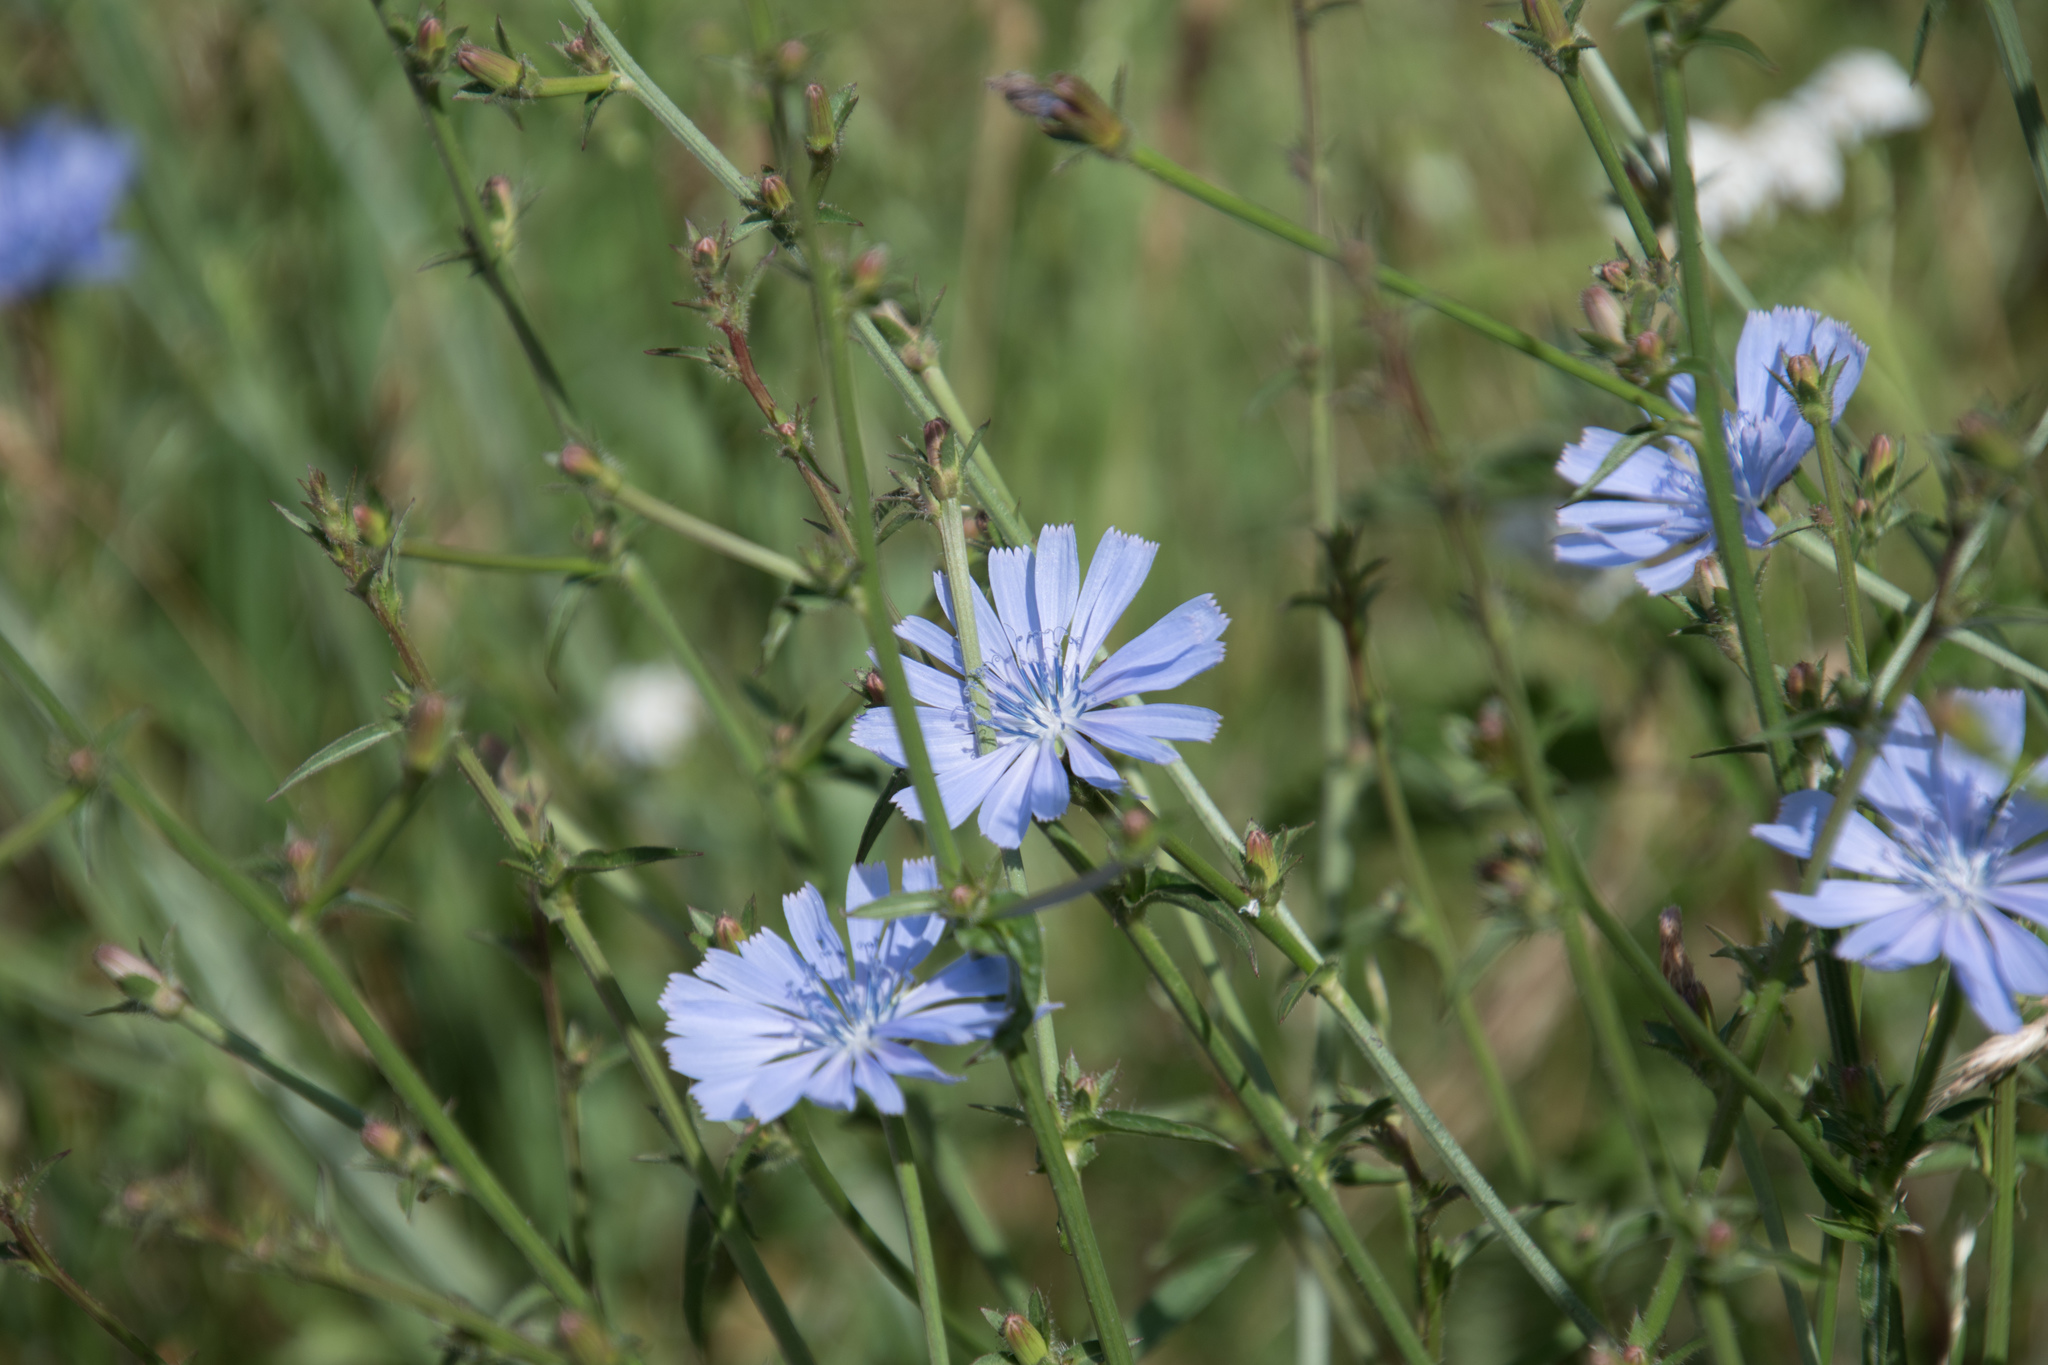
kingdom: Plantae
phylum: Tracheophyta
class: Magnoliopsida
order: Asterales
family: Asteraceae
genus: Cichorium
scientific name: Cichorium intybus
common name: Chicory
